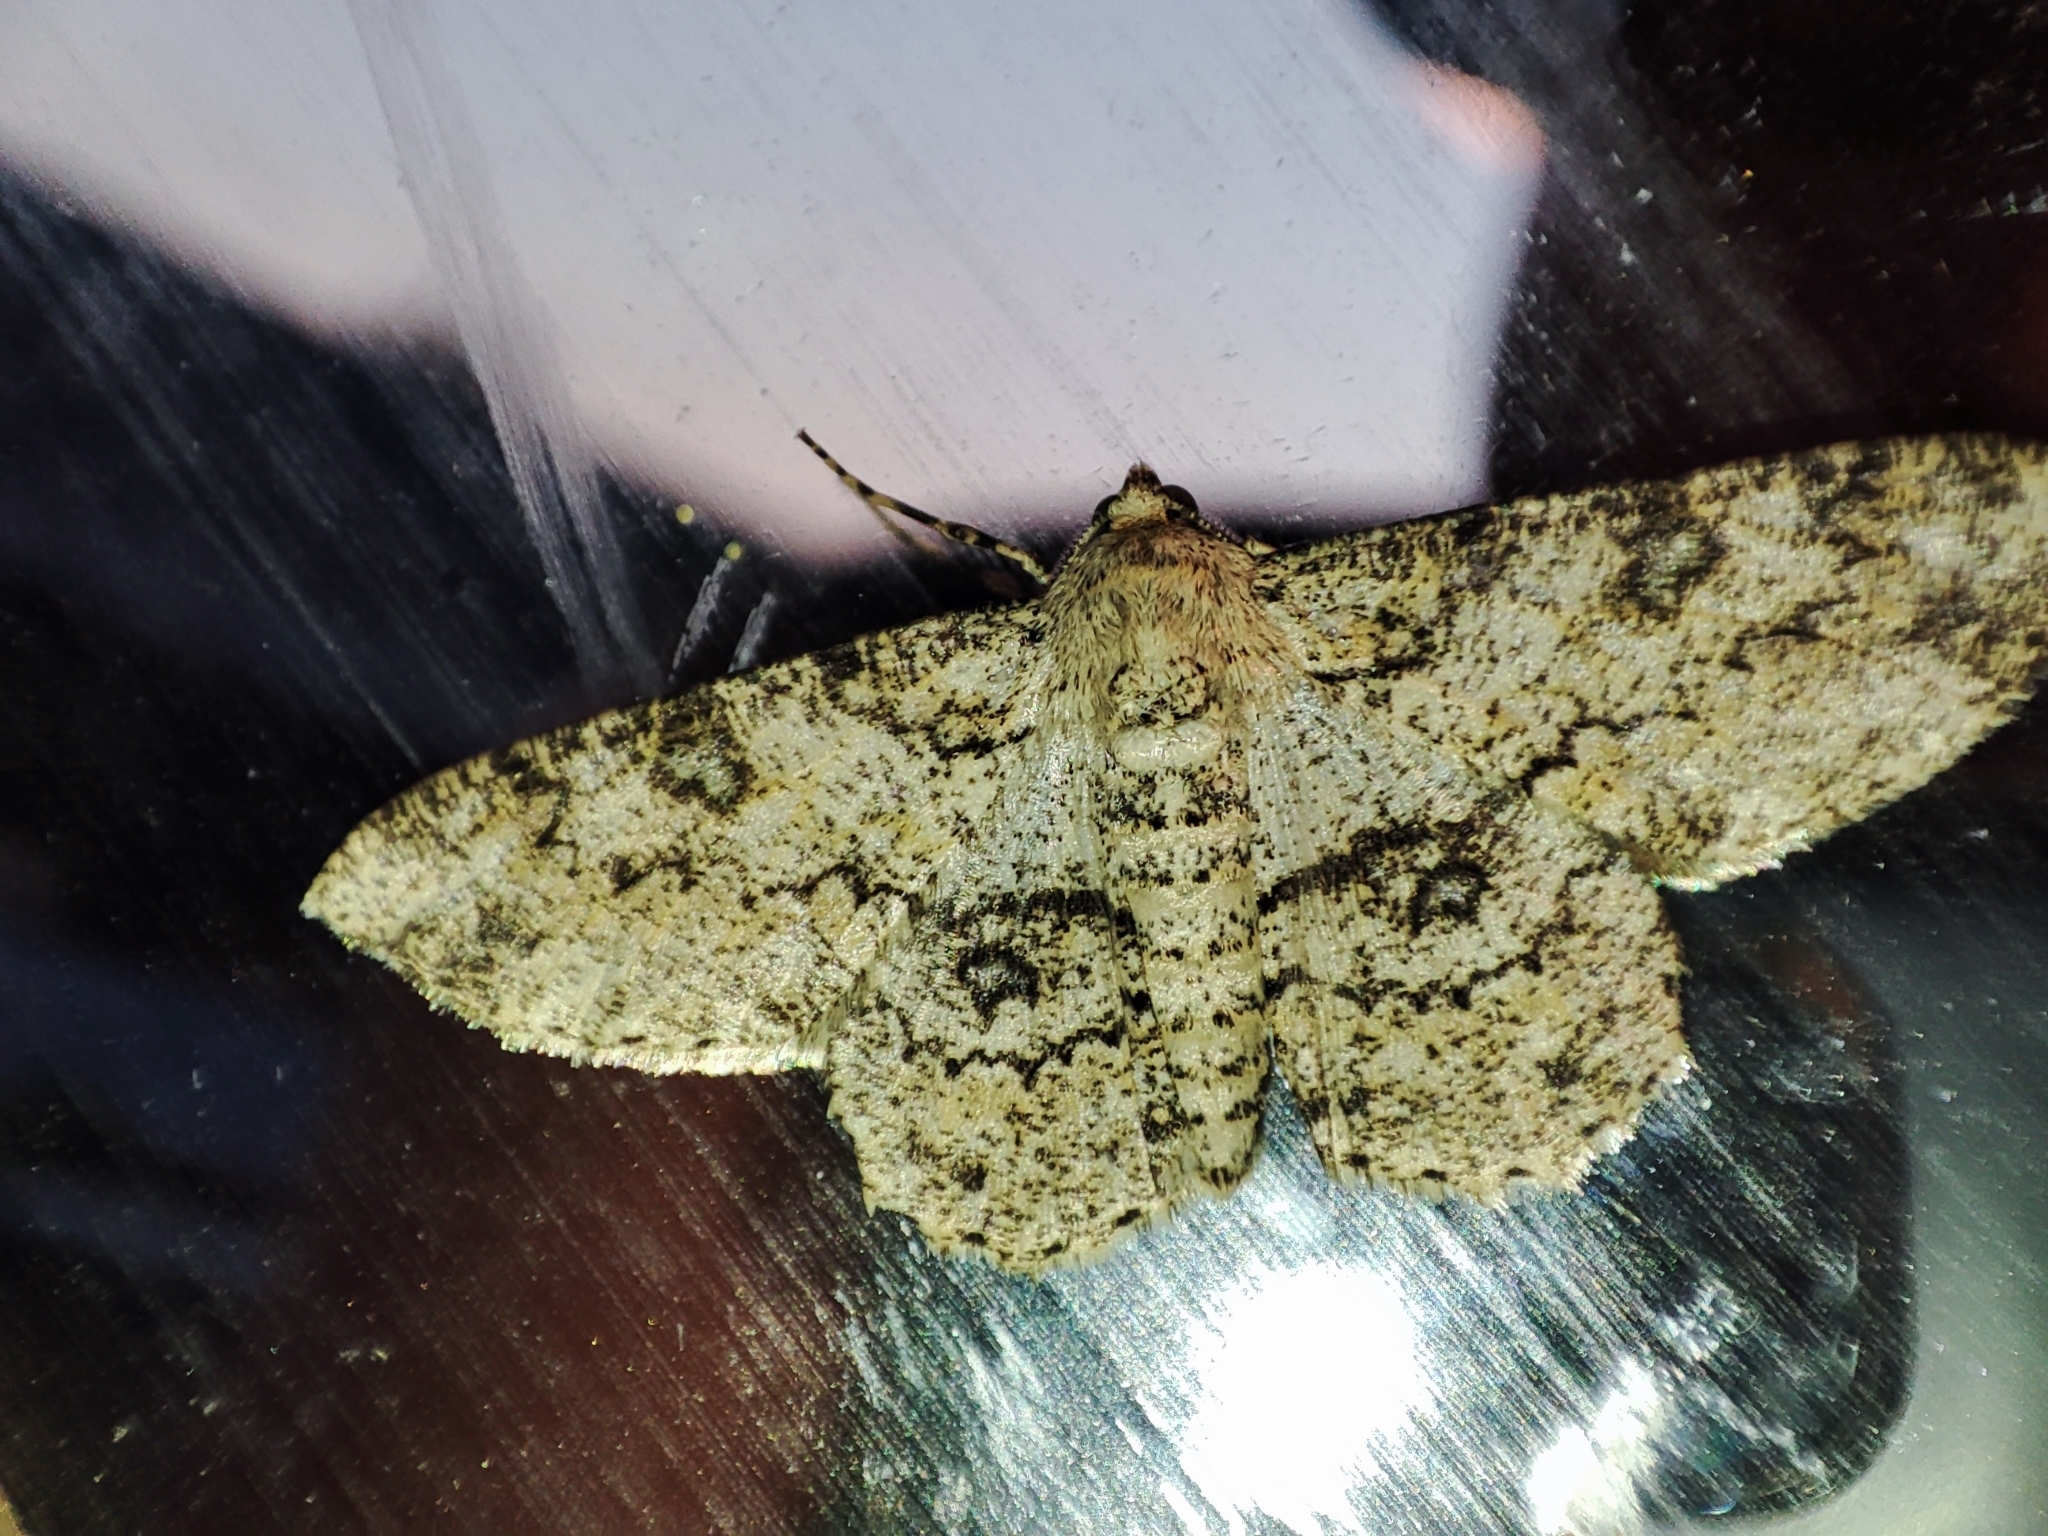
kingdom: Animalia
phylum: Arthropoda
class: Insecta
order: Lepidoptera
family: Geometridae
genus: Ascotis
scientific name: Ascotis selenaria
